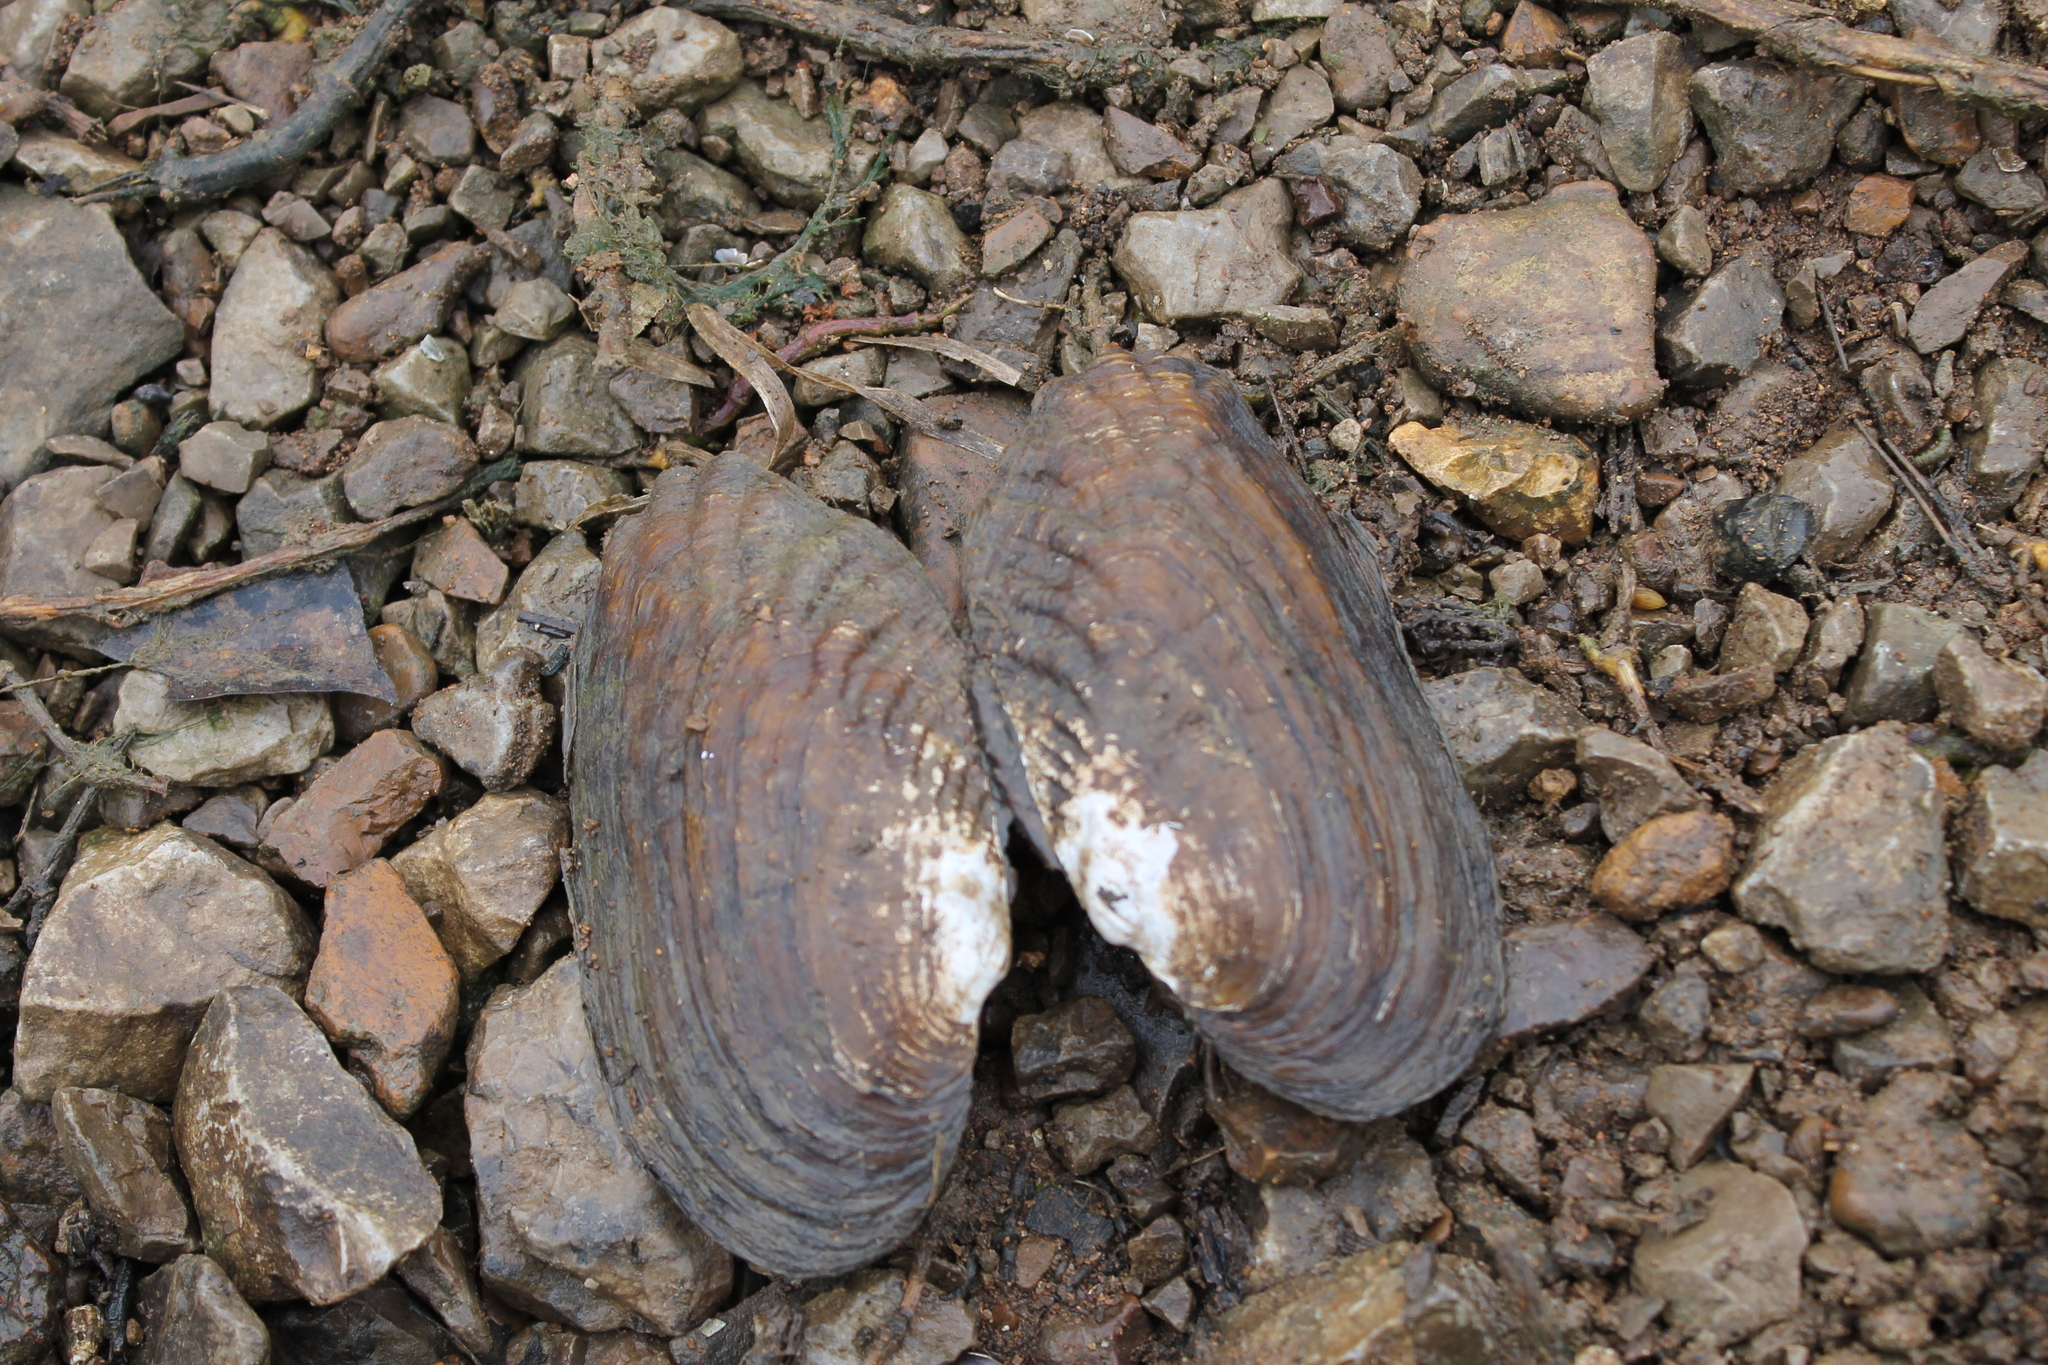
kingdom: Animalia
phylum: Mollusca
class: Bivalvia
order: Unionida
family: Unionidae
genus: Lasmigona
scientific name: Lasmigona costata
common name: Flutedshell
